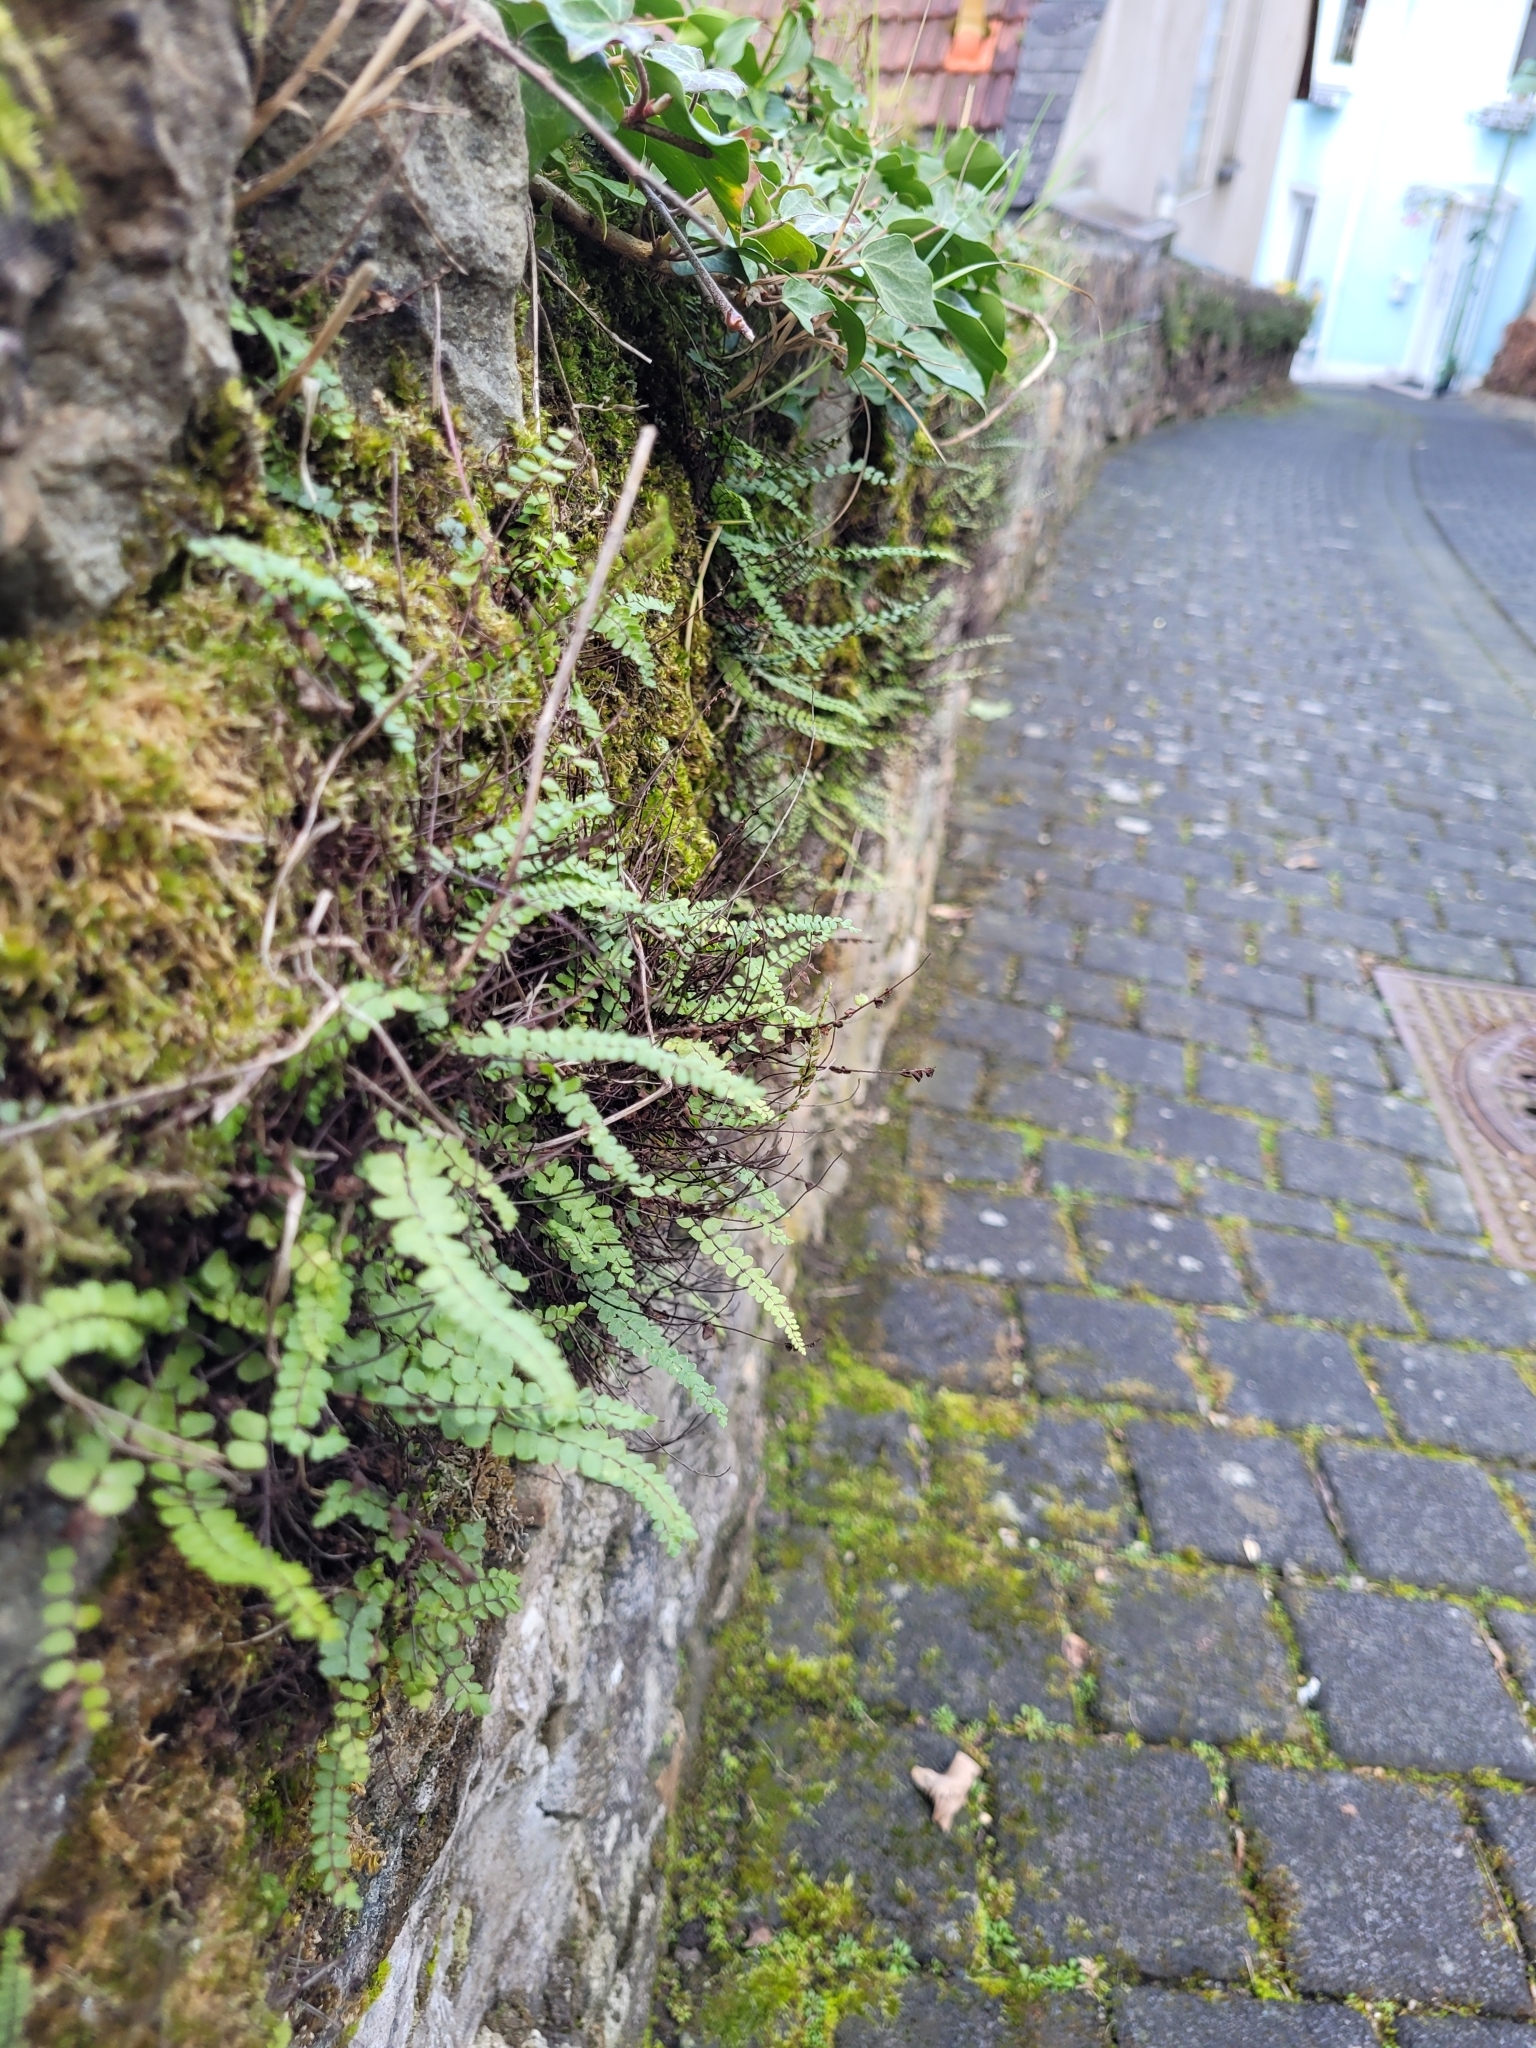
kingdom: Plantae
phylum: Tracheophyta
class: Polypodiopsida
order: Polypodiales
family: Aspleniaceae
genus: Asplenium
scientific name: Asplenium trichomanes
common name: Maidenhair spleenwort
